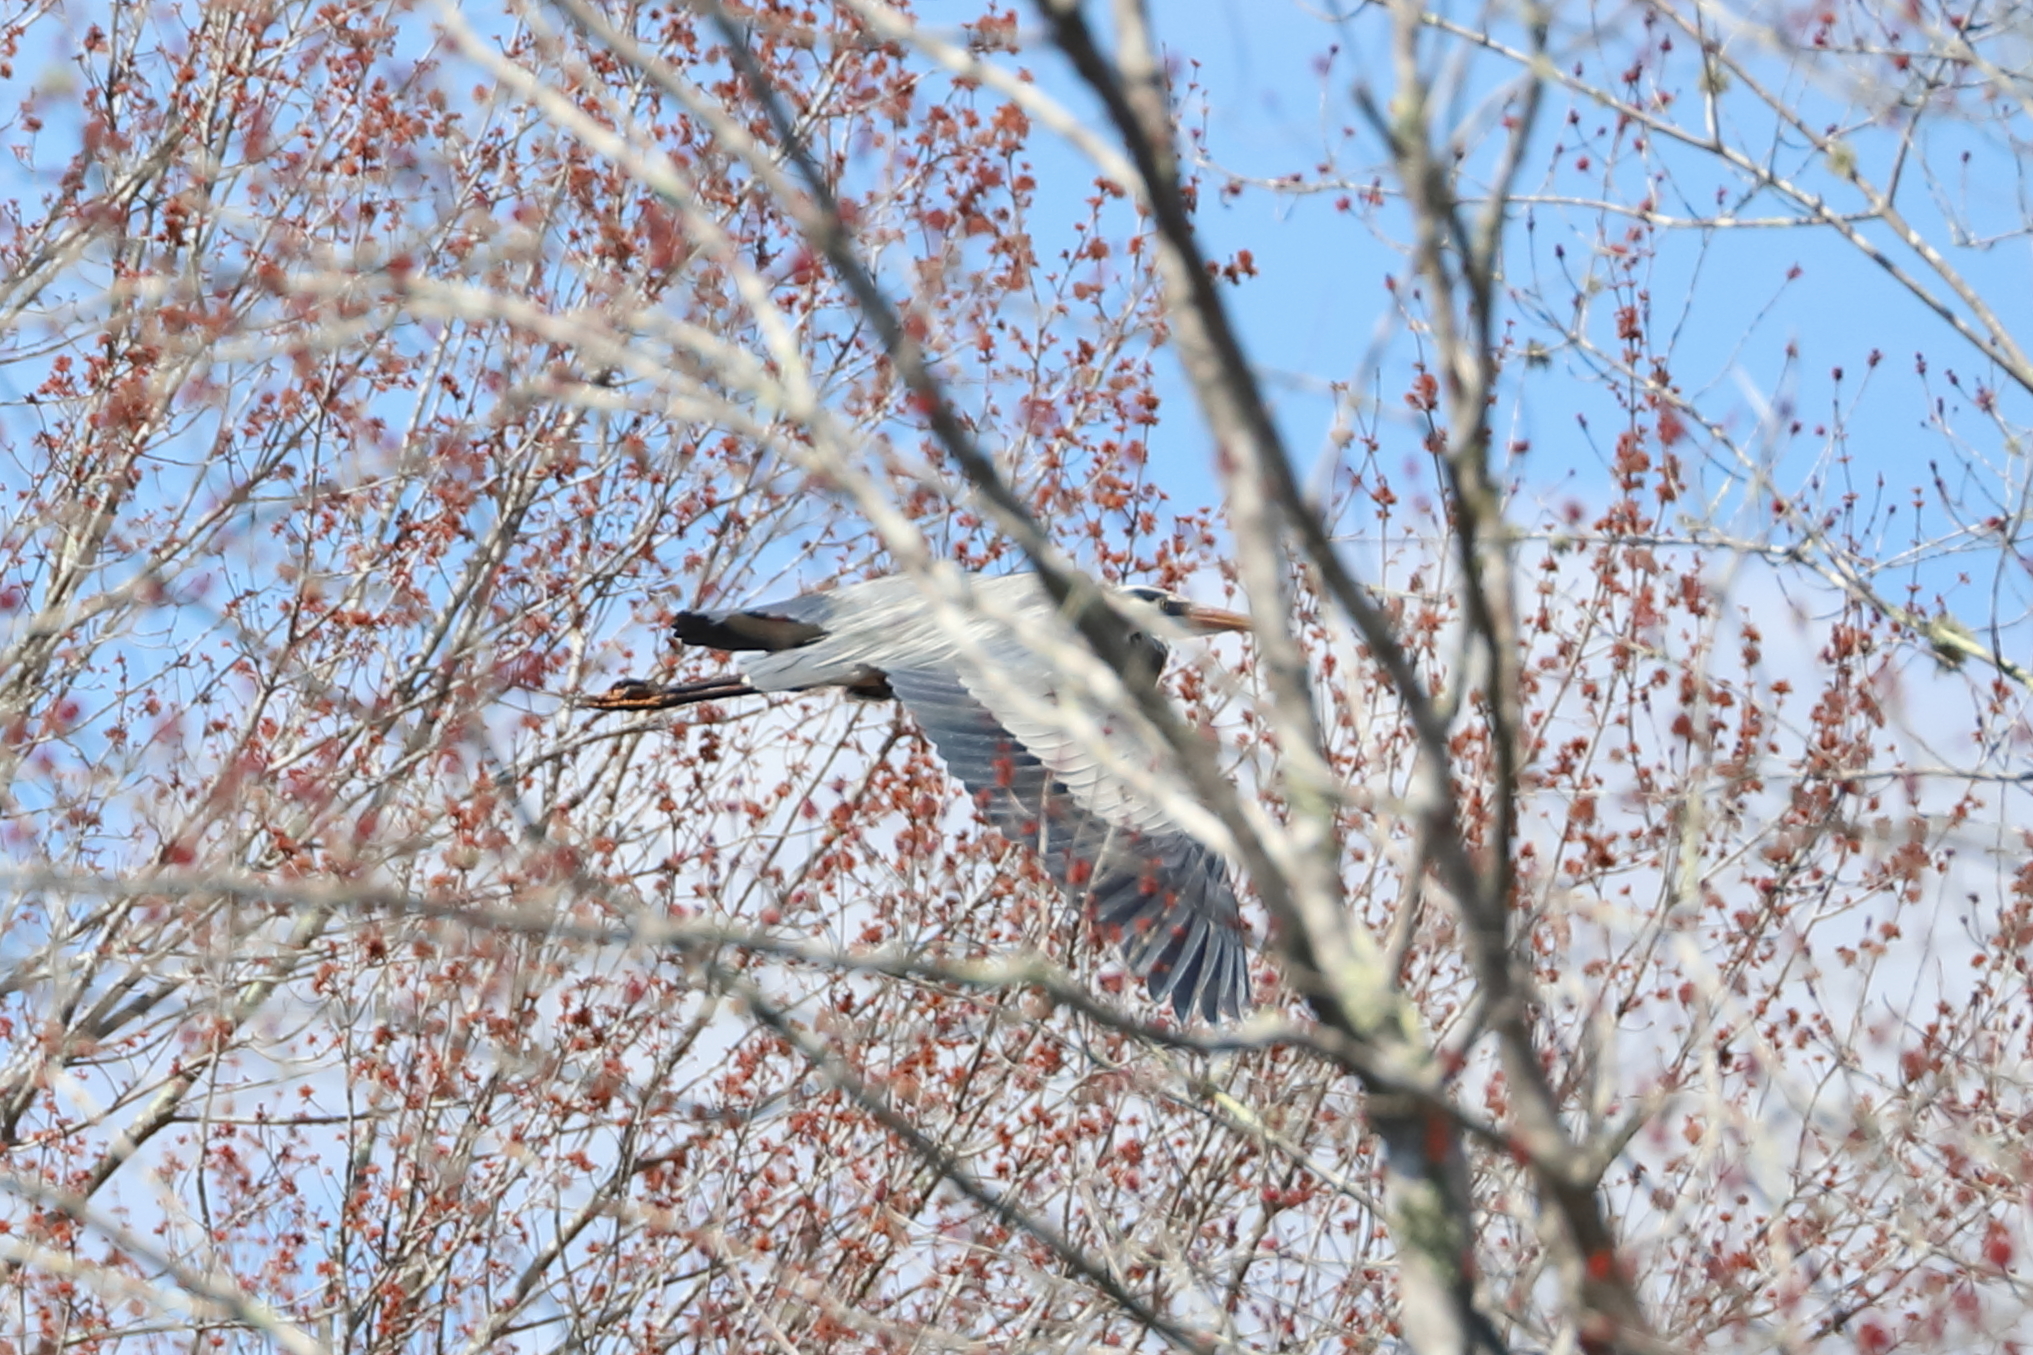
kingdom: Animalia
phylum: Chordata
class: Aves
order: Pelecaniformes
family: Ardeidae
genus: Ardea
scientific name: Ardea herodias
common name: Great blue heron
